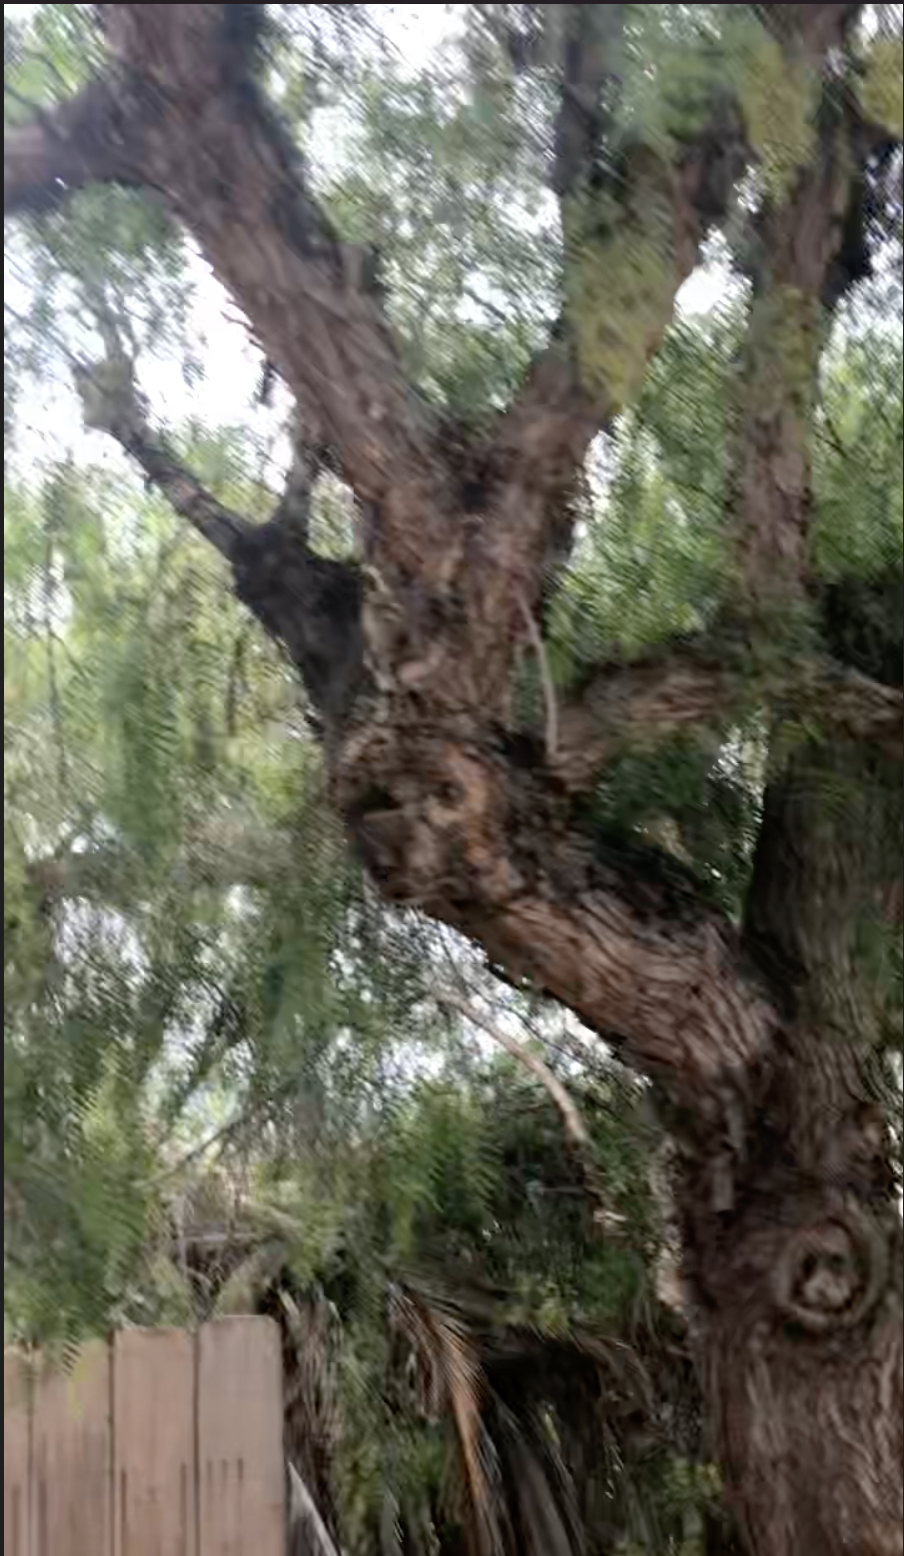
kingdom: Plantae
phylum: Tracheophyta
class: Magnoliopsida
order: Sapindales
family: Anacardiaceae
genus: Schinus
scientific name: Schinus molle
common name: Peruvian peppertree
